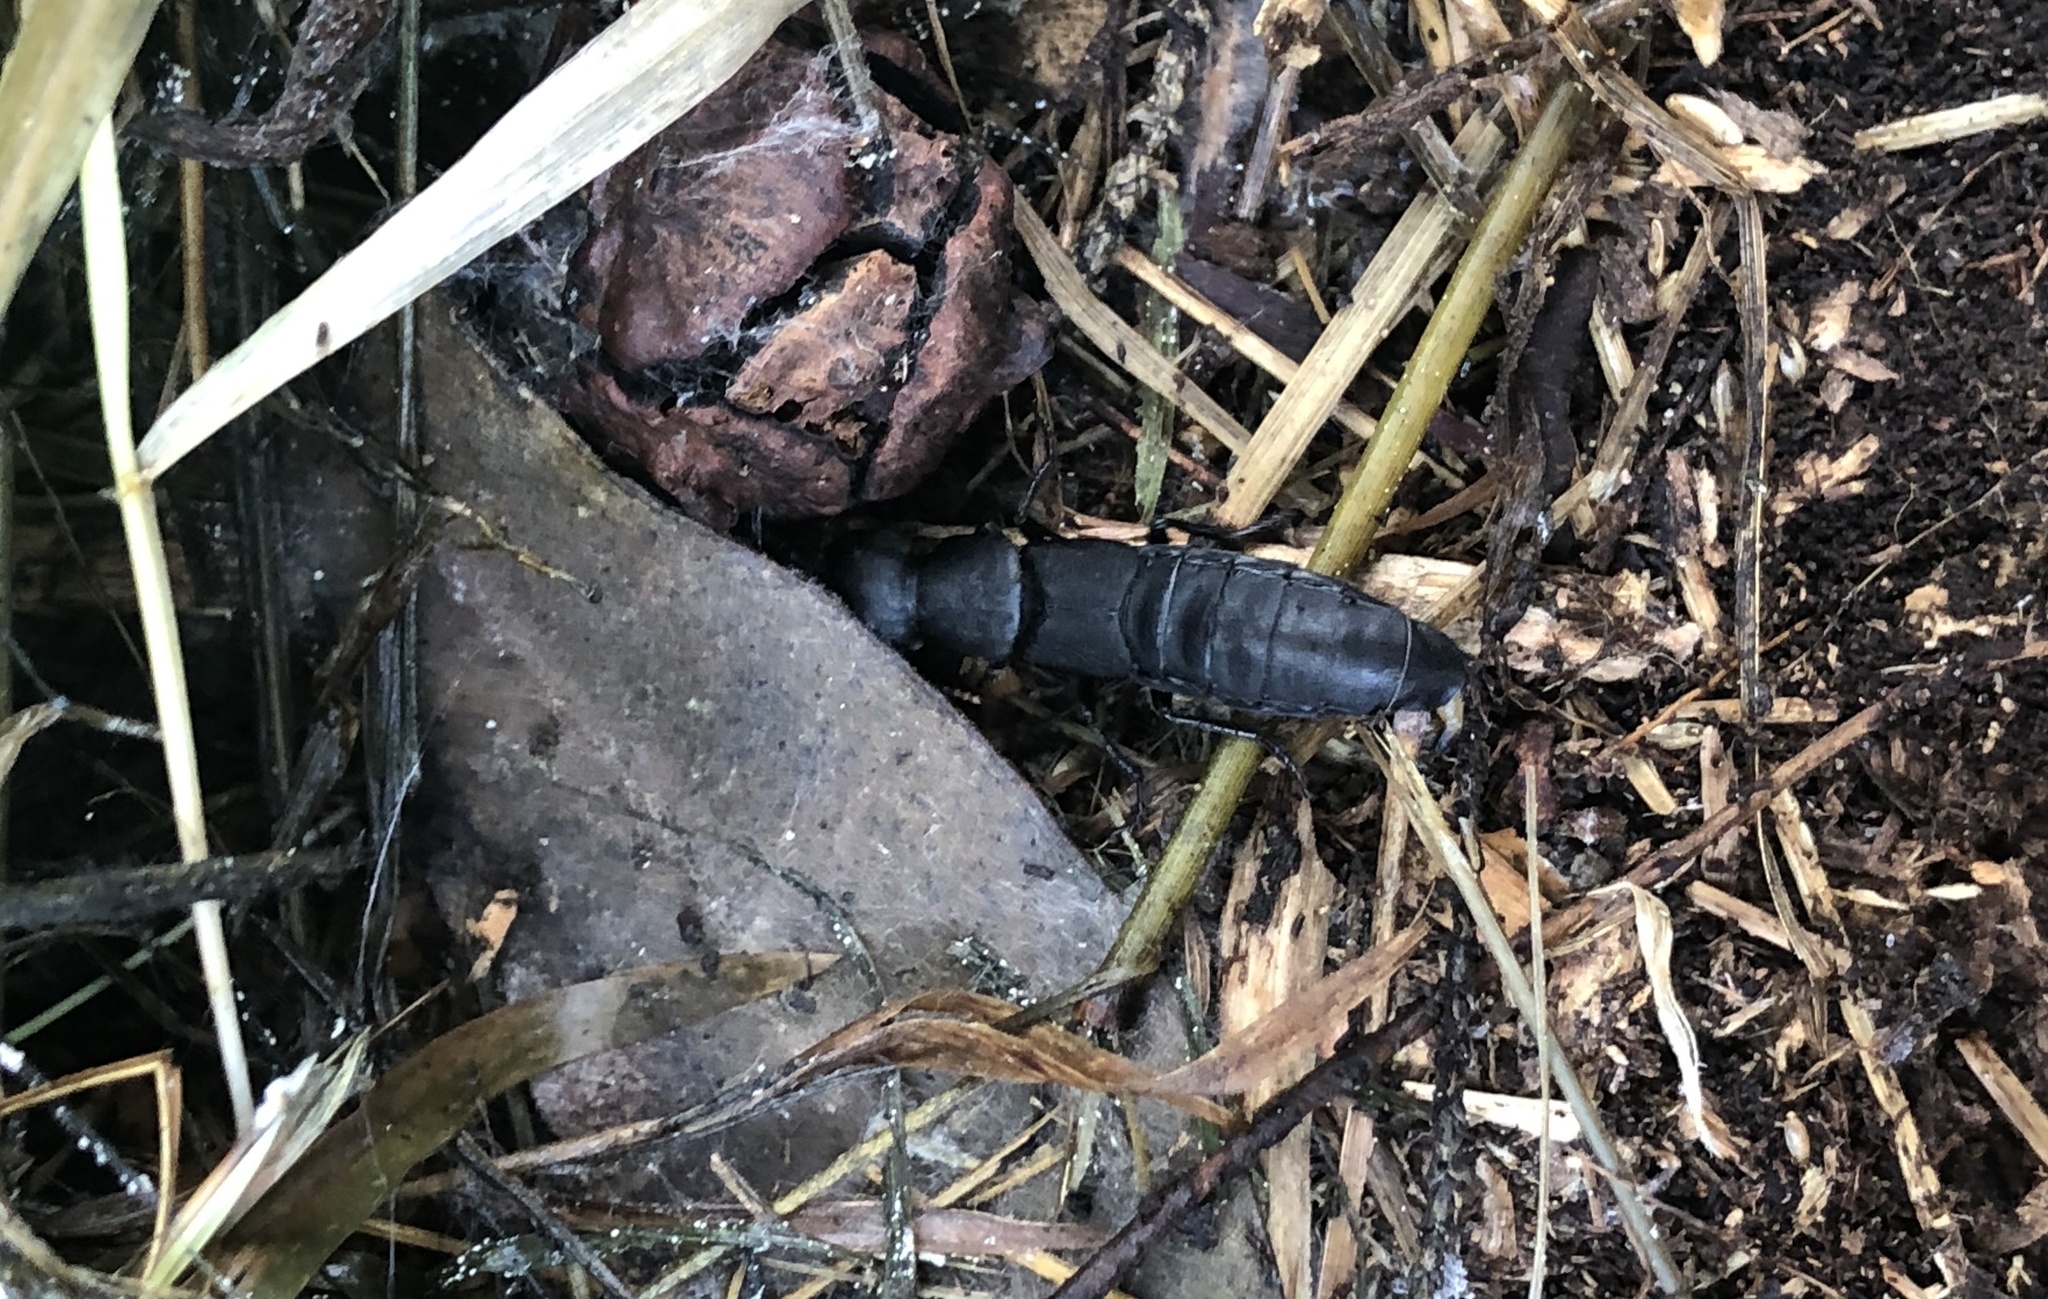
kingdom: Animalia
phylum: Arthropoda
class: Insecta
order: Coleoptera
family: Staphylinidae
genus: Ocypus
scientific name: Ocypus olens
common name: Devil's coach-horse
